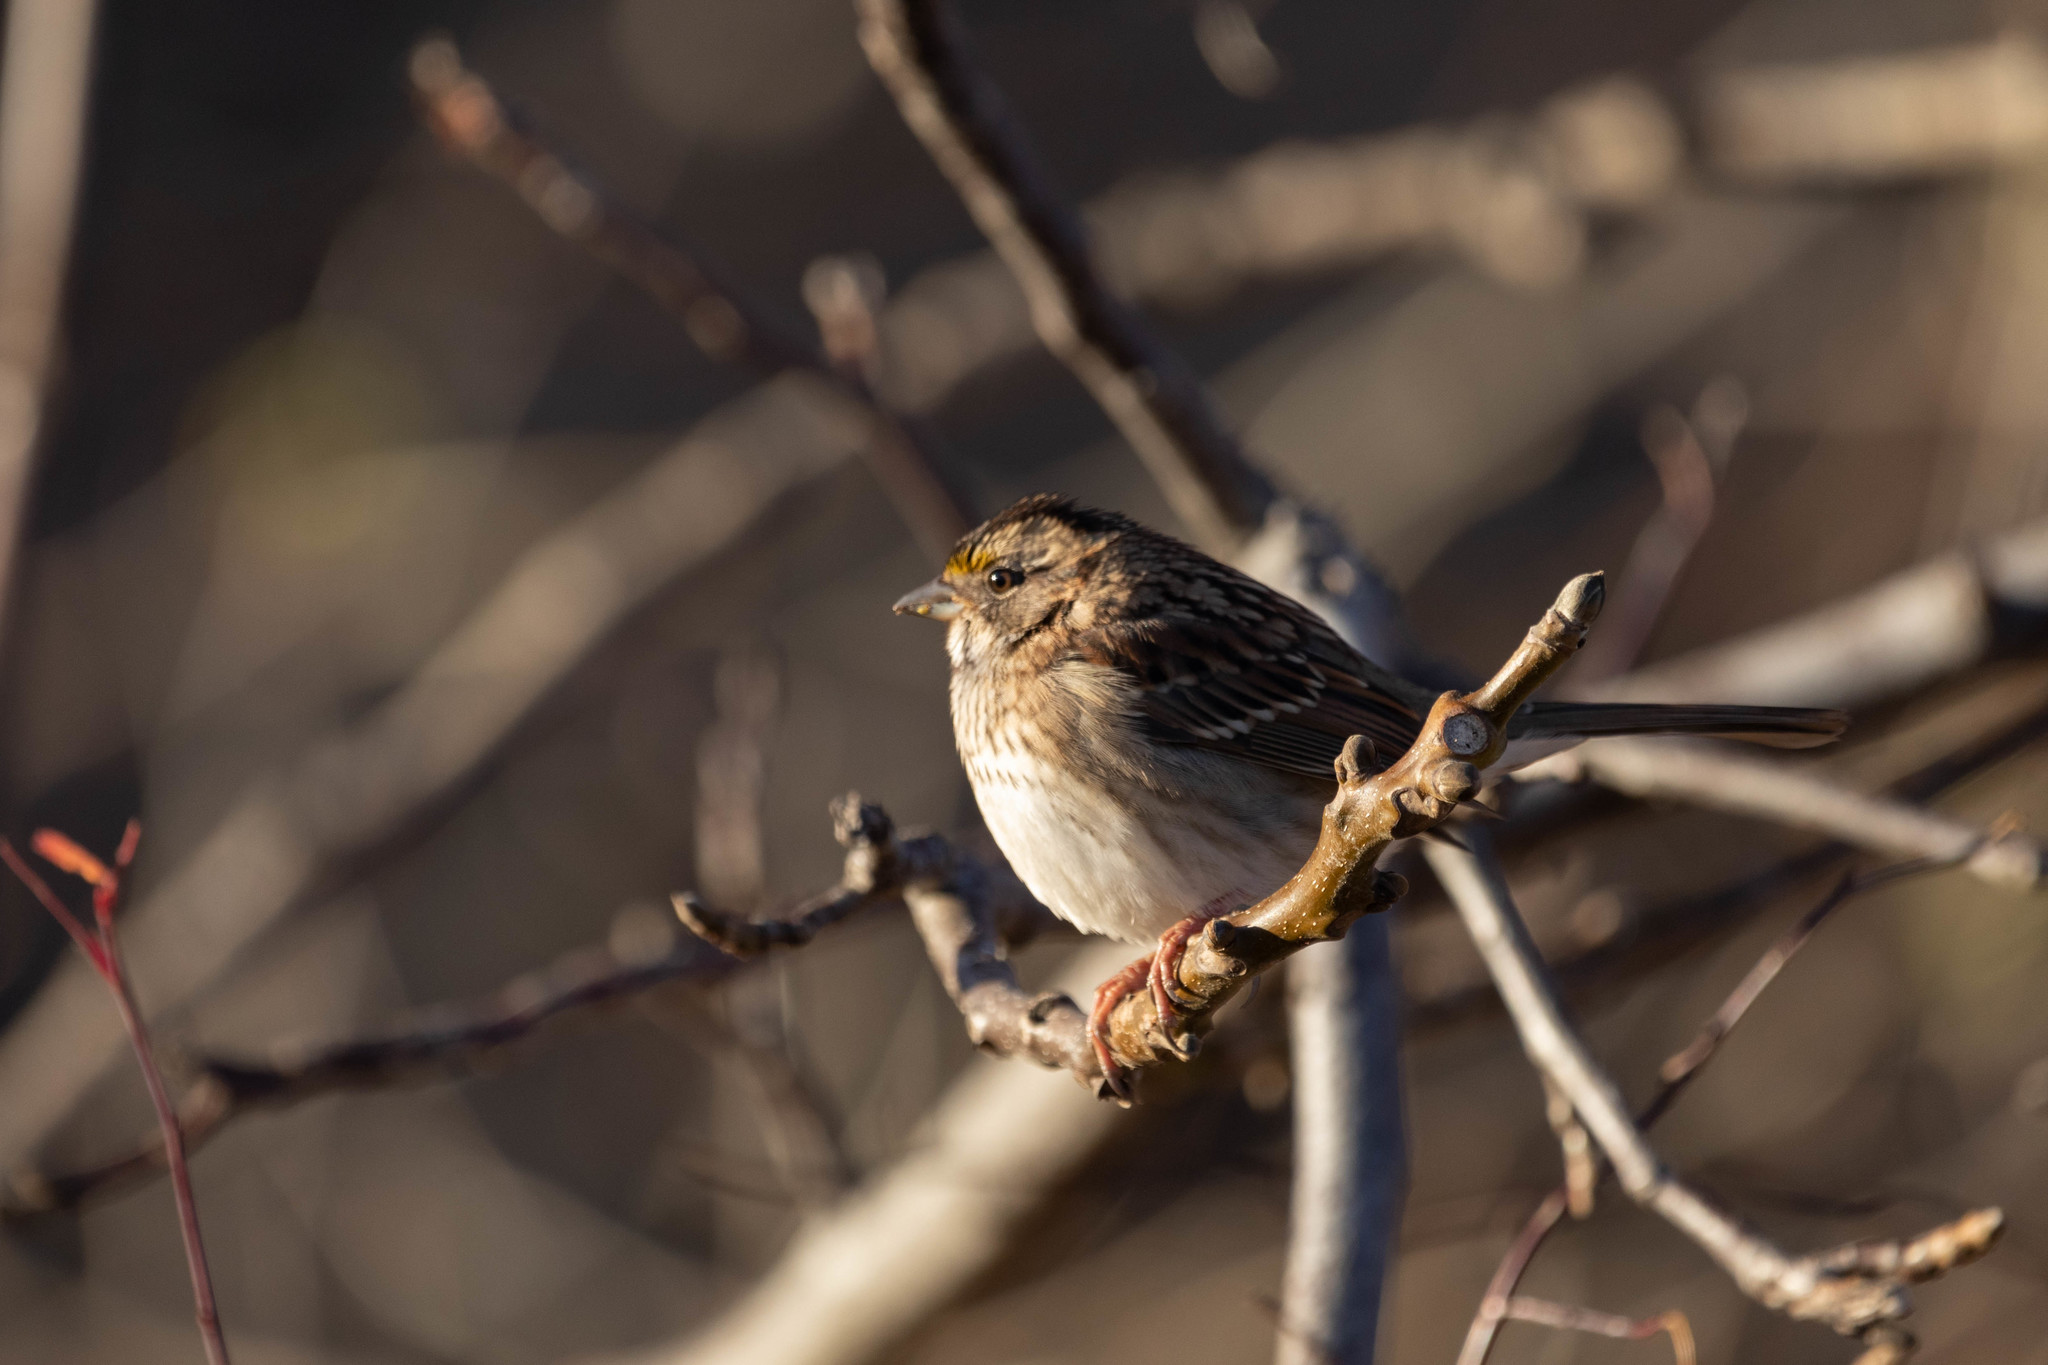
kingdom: Animalia
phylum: Chordata
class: Aves
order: Passeriformes
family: Passerellidae
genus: Zonotrichia
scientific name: Zonotrichia albicollis
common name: White-throated sparrow
